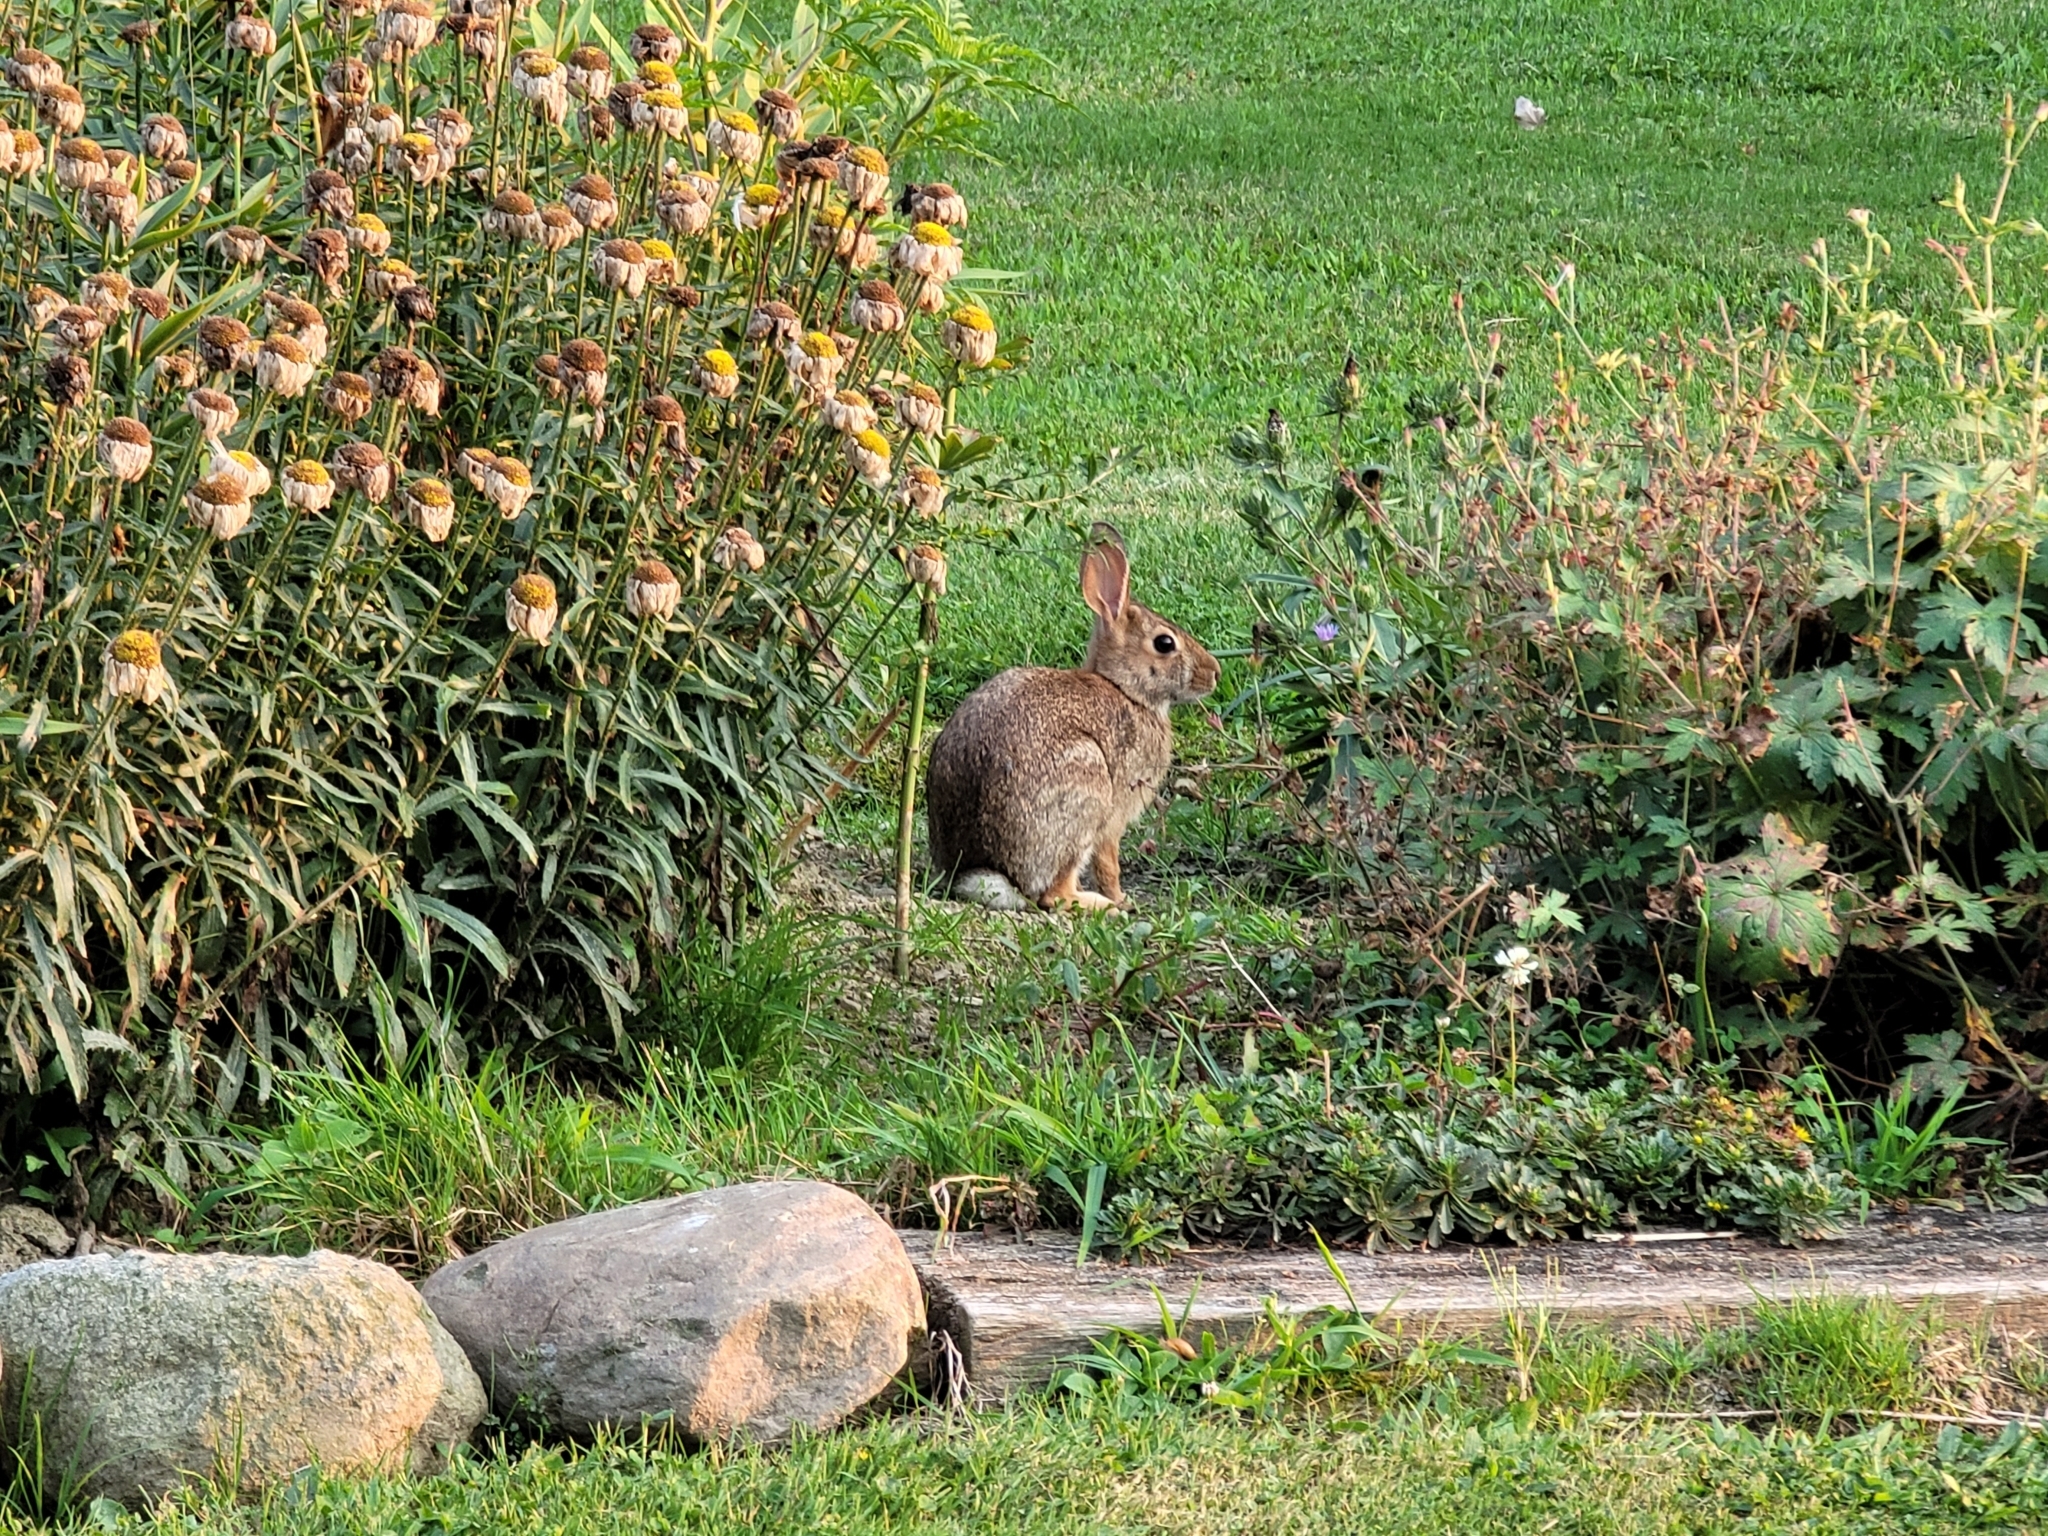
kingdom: Animalia
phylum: Chordata
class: Mammalia
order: Lagomorpha
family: Leporidae
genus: Sylvilagus
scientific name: Sylvilagus floridanus
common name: Eastern cottontail
